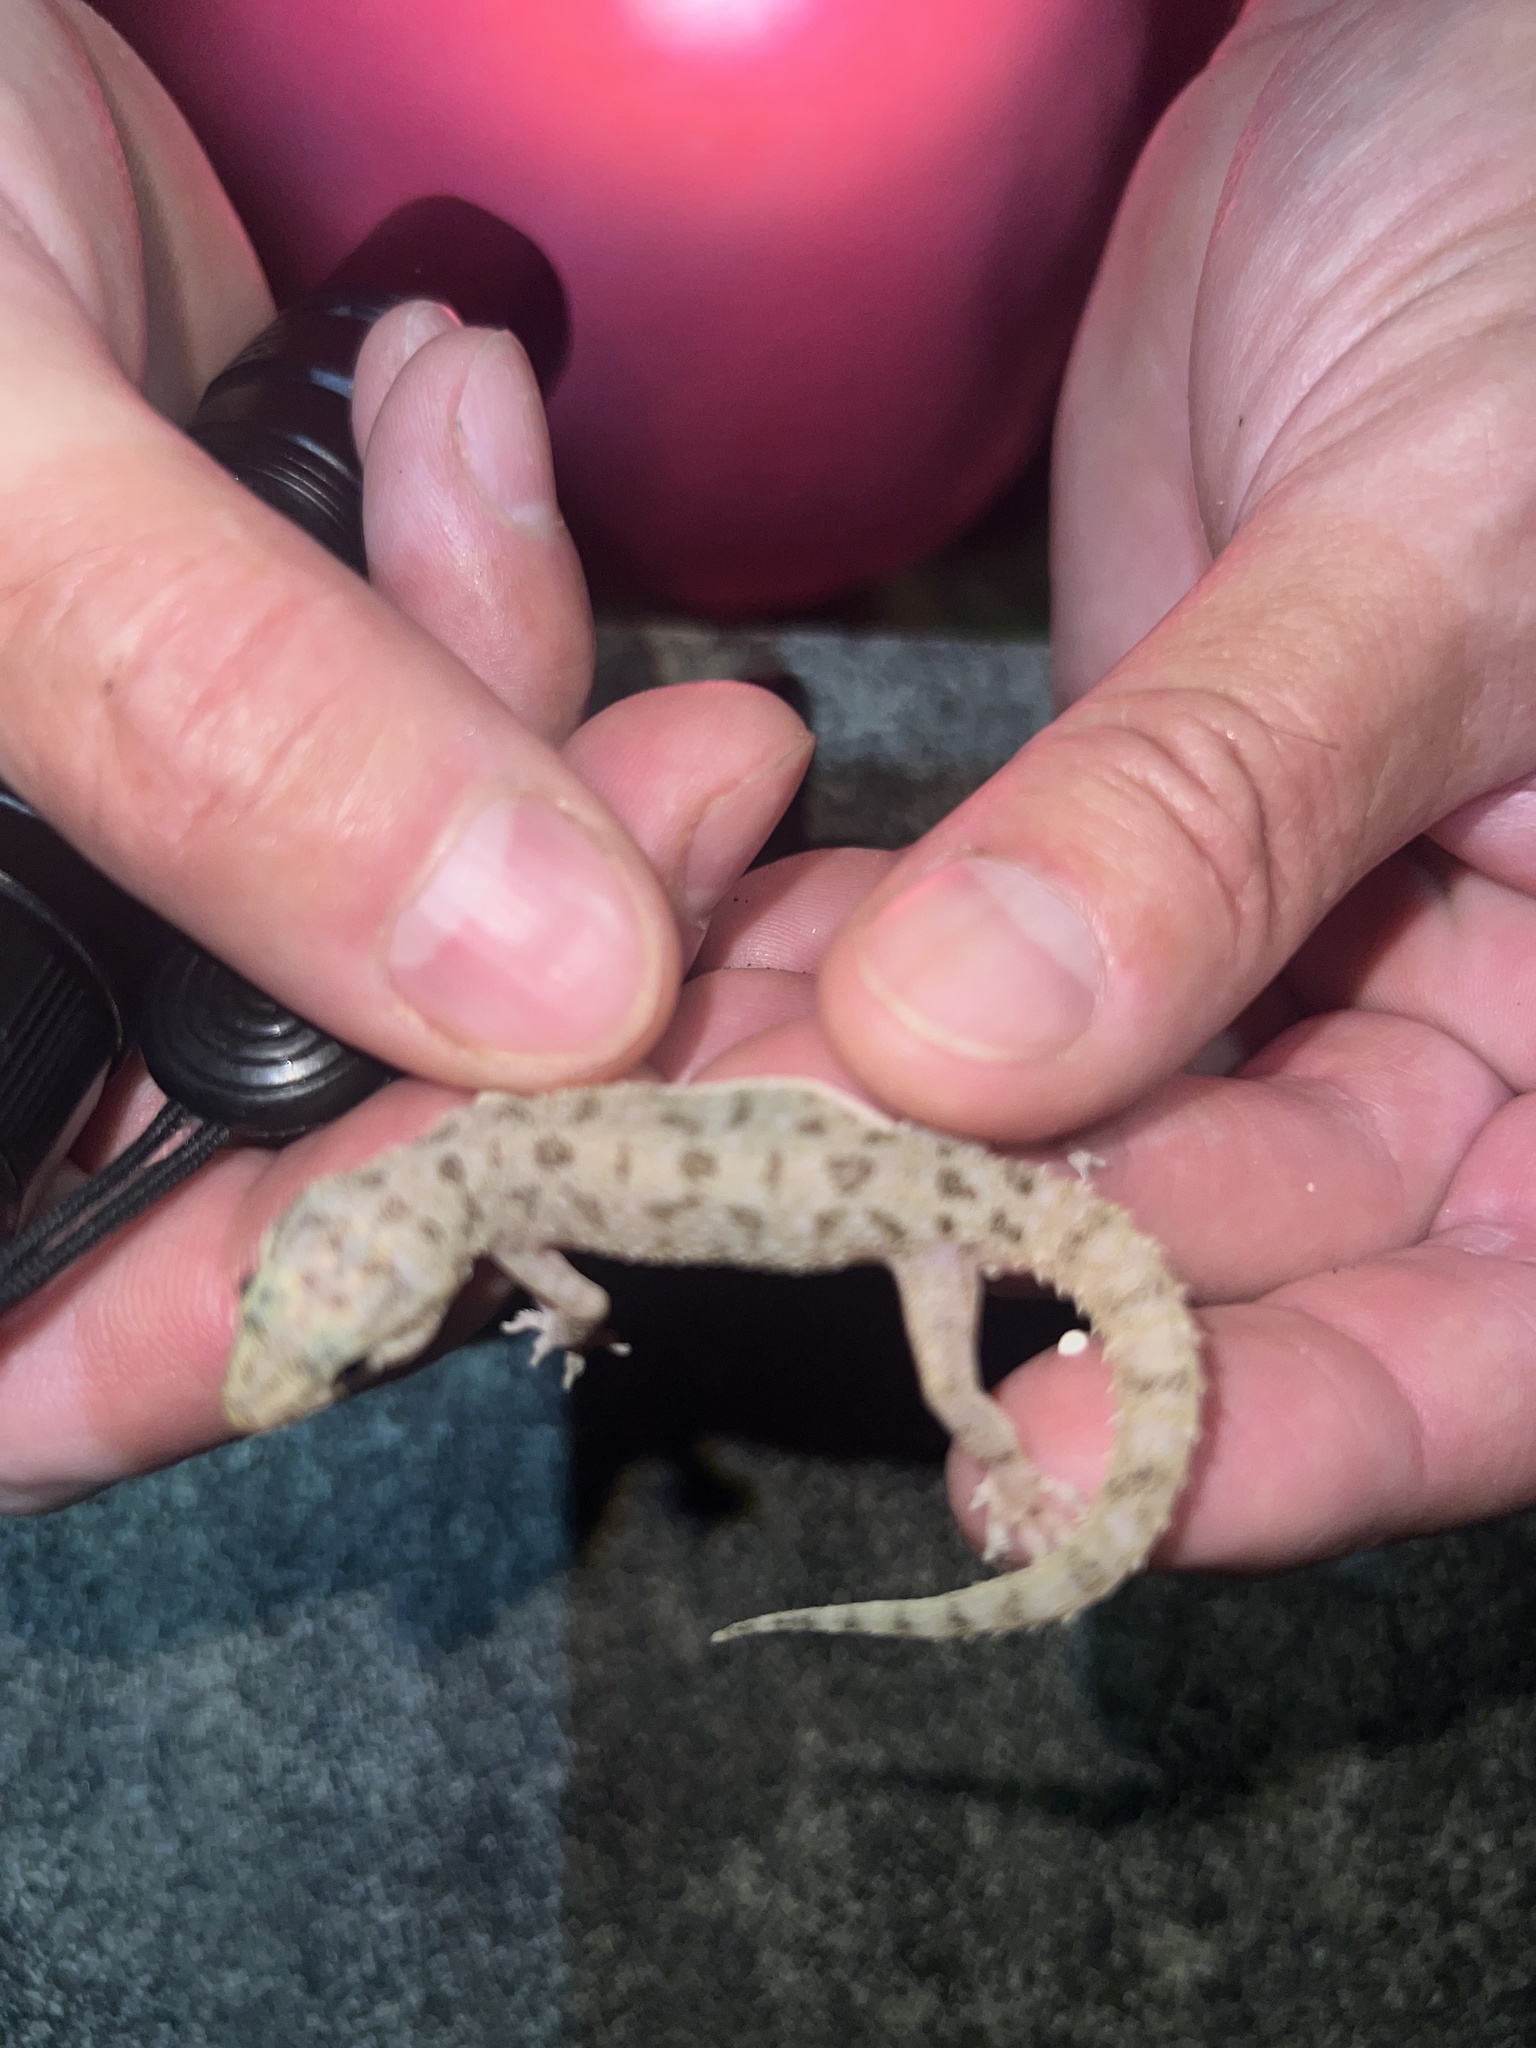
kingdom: Animalia
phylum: Chordata
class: Squamata
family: Gekkonidae
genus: Hemidactylus
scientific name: Hemidactylus parvimaculatus
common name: Spotted house gecko
